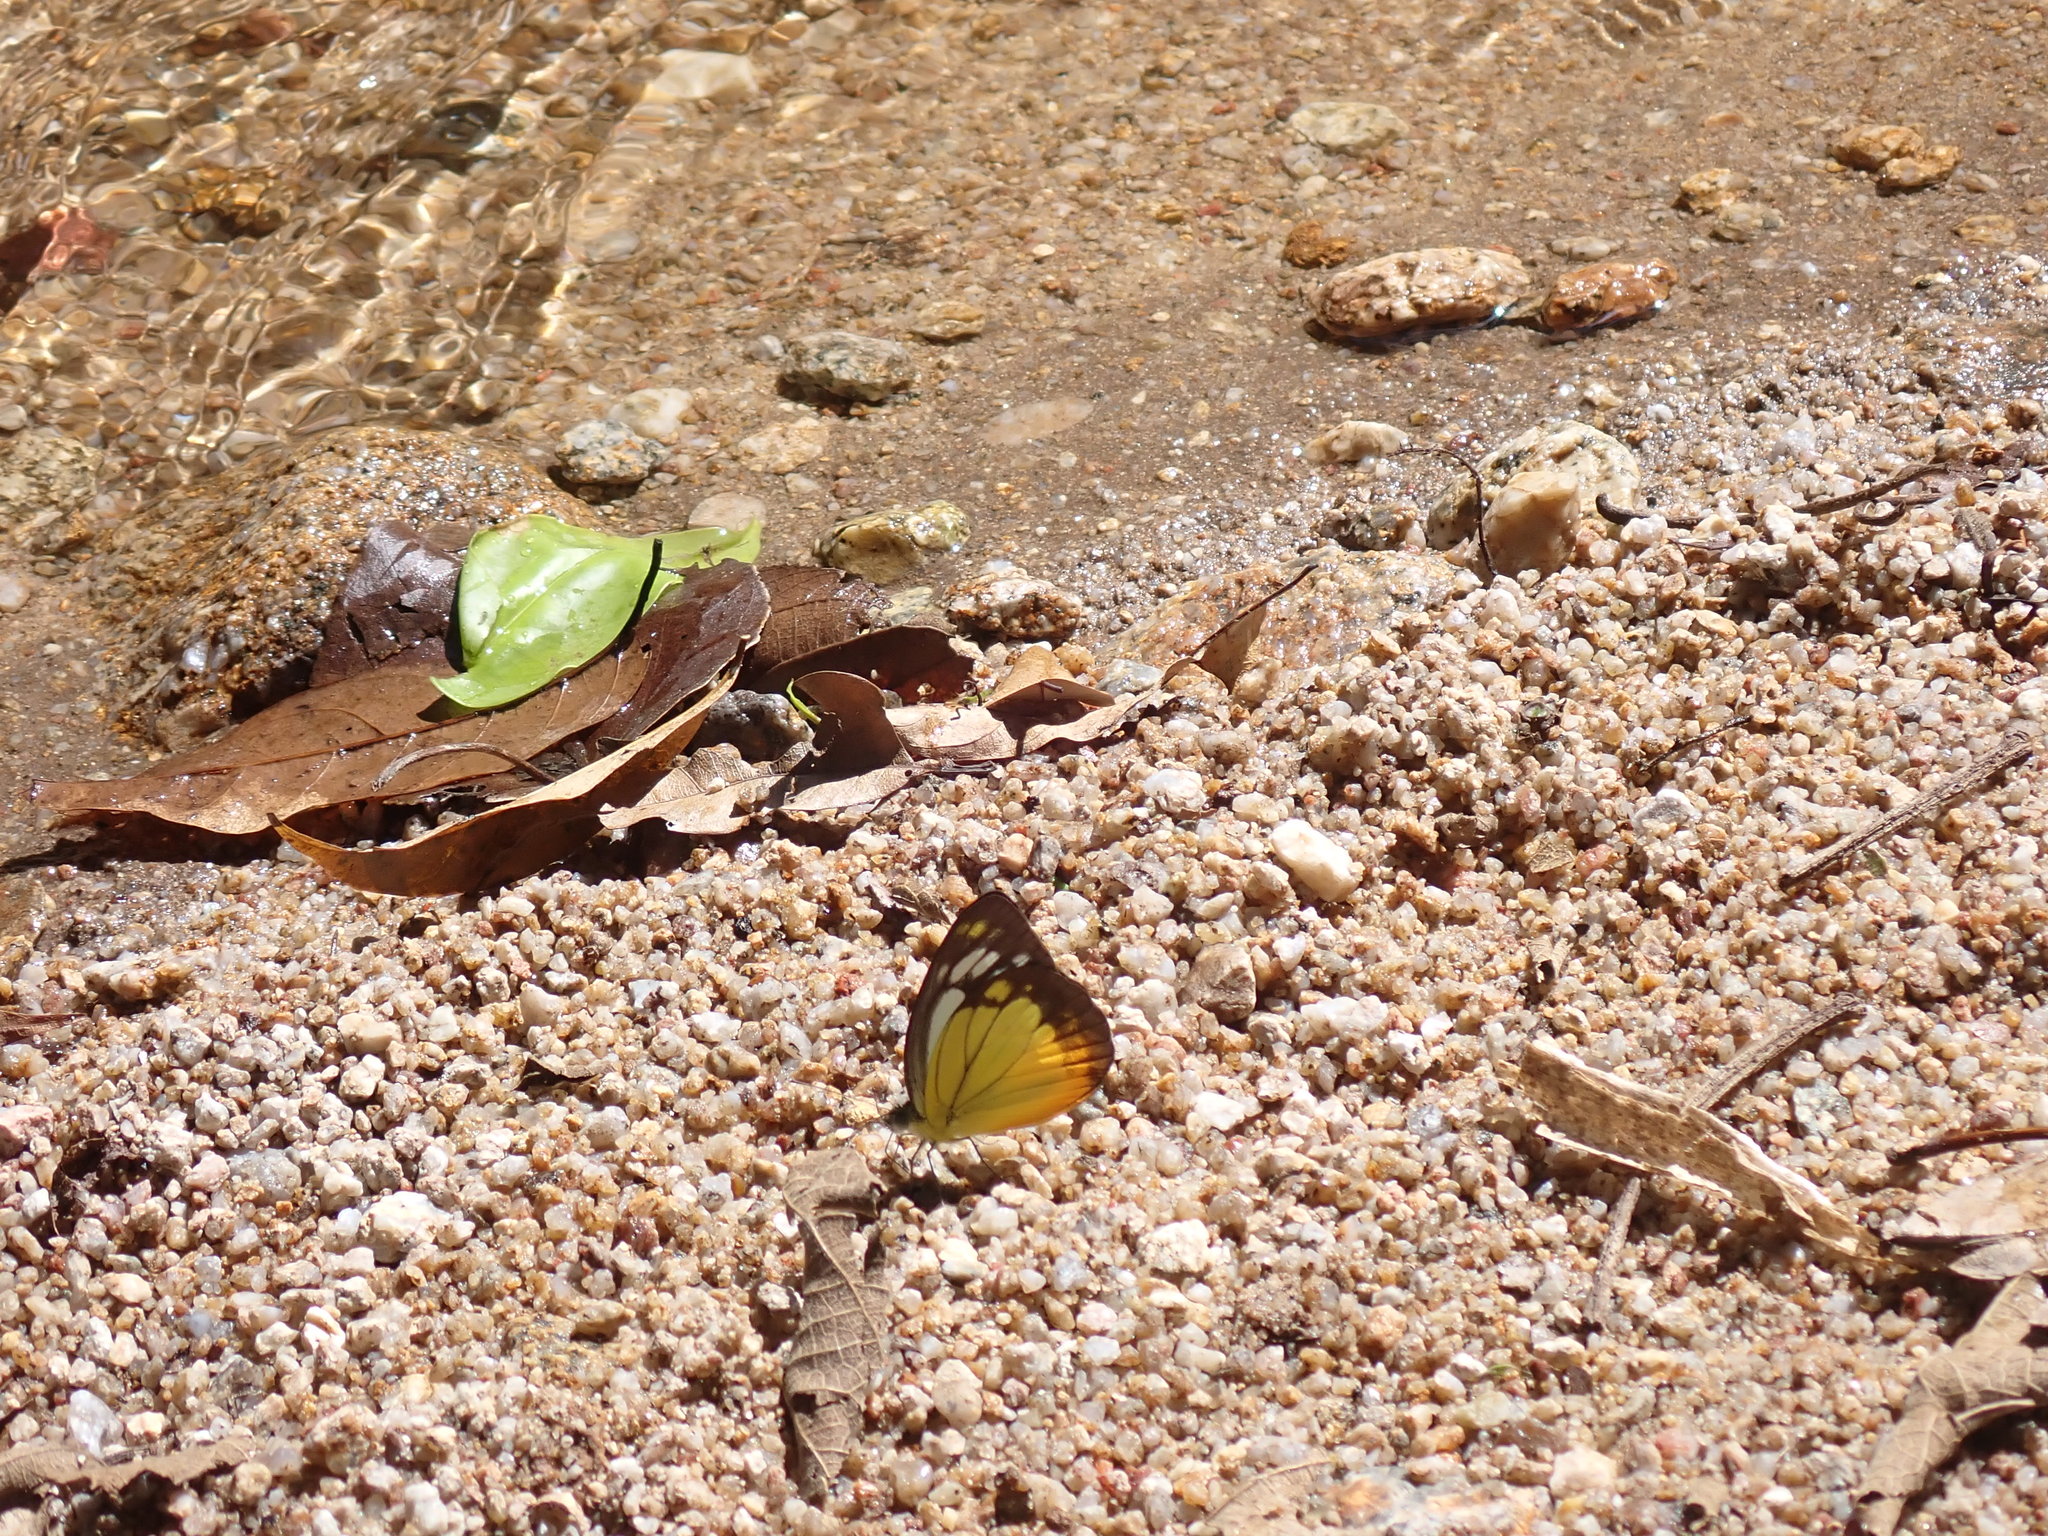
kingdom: Animalia
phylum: Arthropoda
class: Insecta
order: Lepidoptera
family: Pieridae
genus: Cepora
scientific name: Cepora iudith
